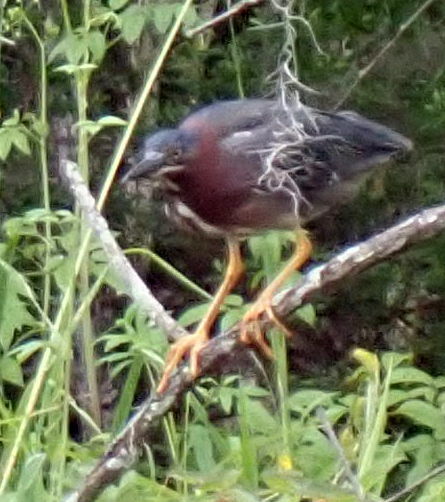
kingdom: Animalia
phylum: Chordata
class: Aves
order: Pelecaniformes
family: Ardeidae
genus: Butorides
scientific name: Butorides virescens
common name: Green heron
